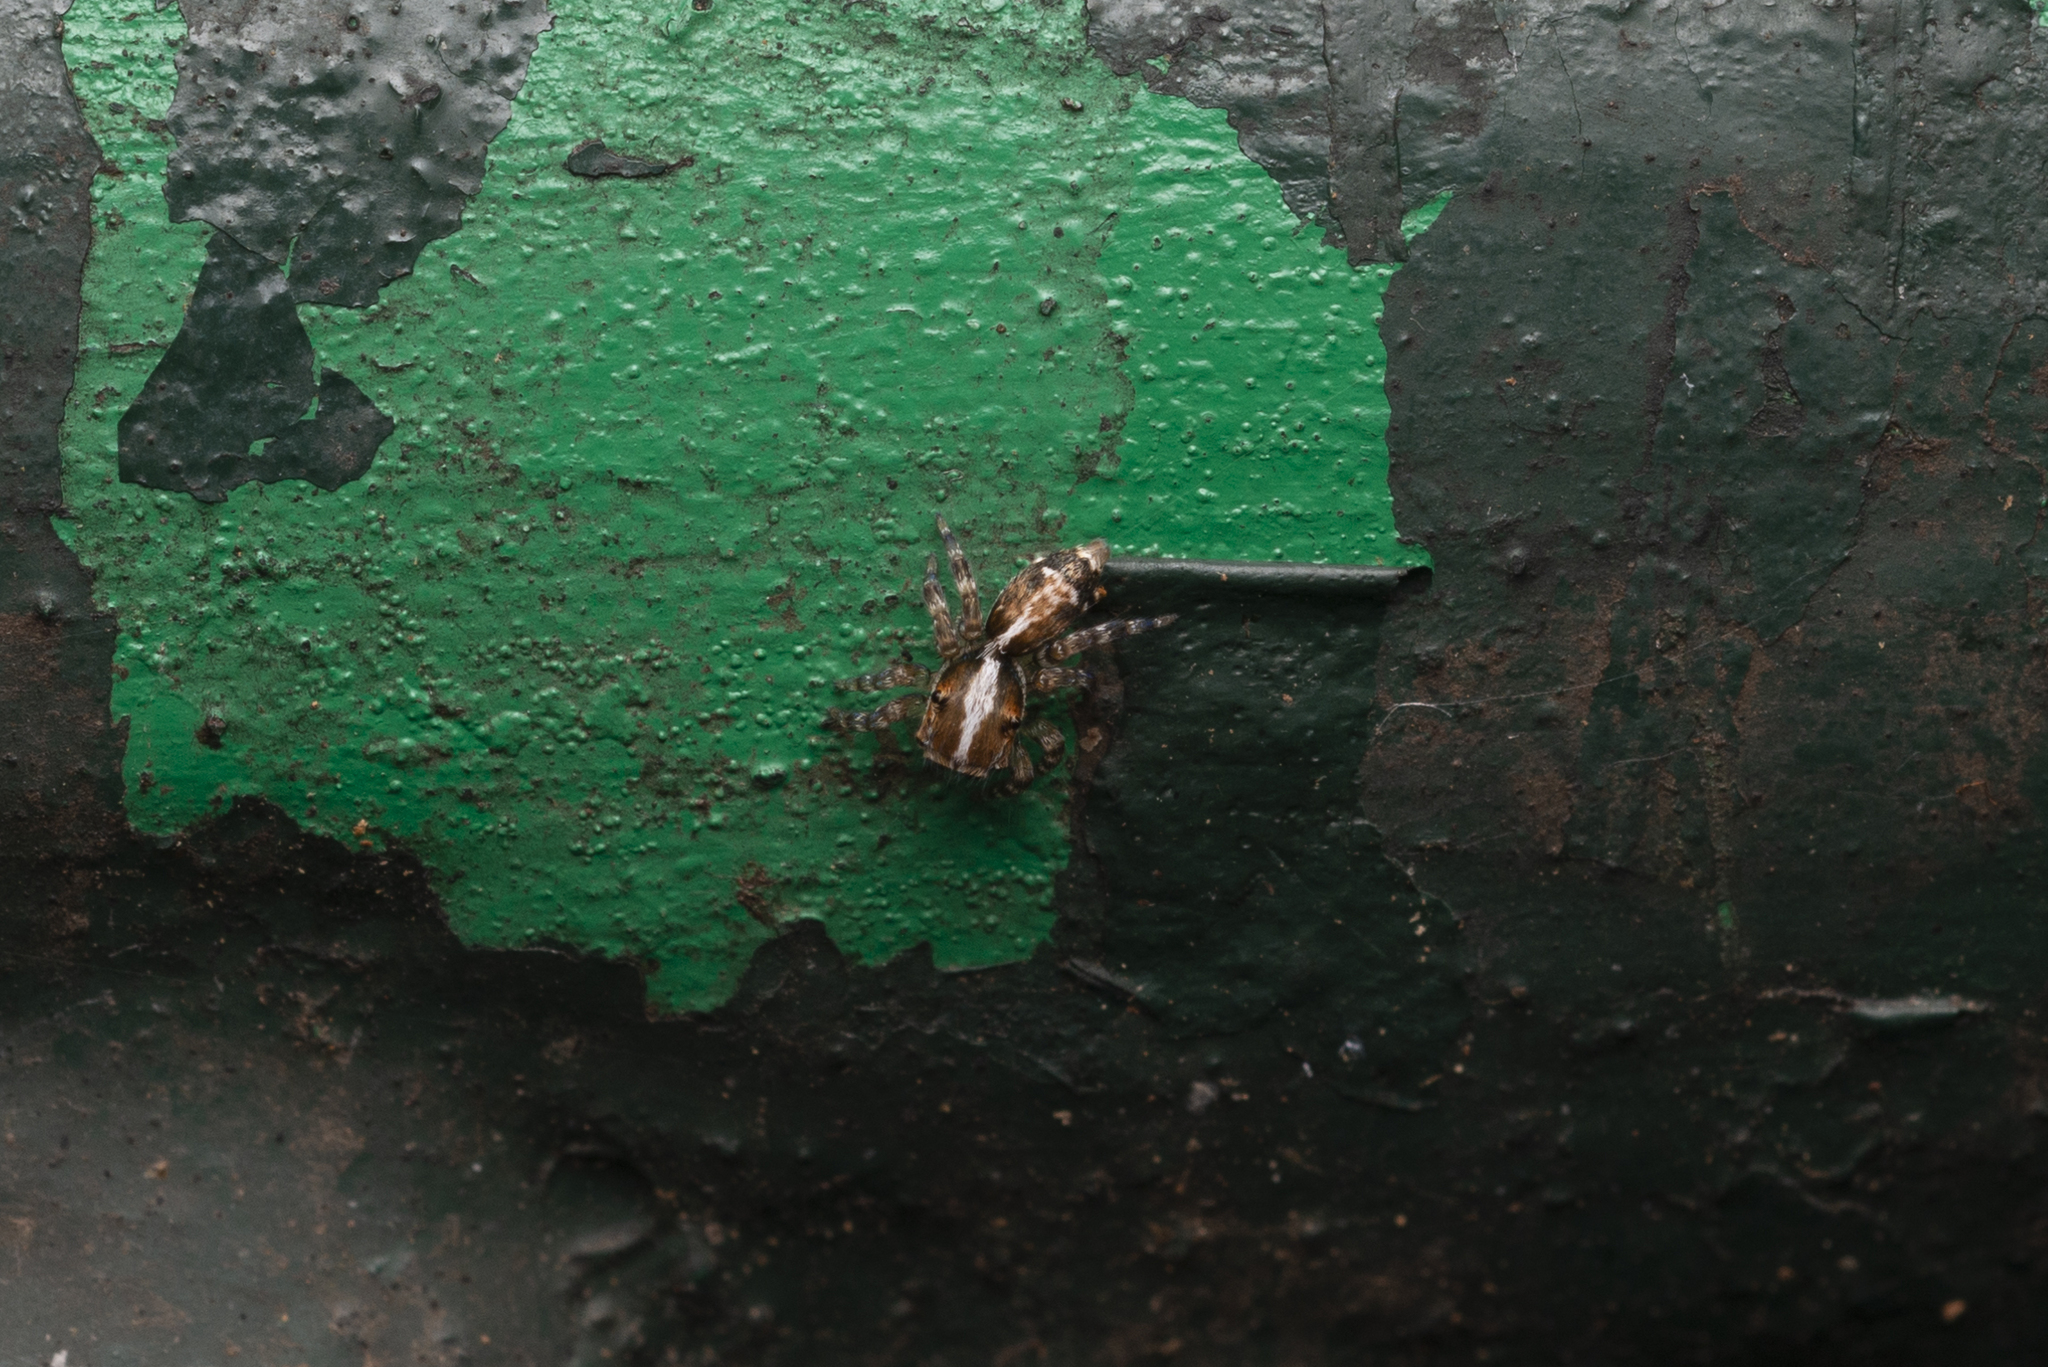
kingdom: Animalia
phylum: Arthropoda
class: Arachnida
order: Araneae
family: Salticidae
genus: Thyene
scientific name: Thyene orientalis
